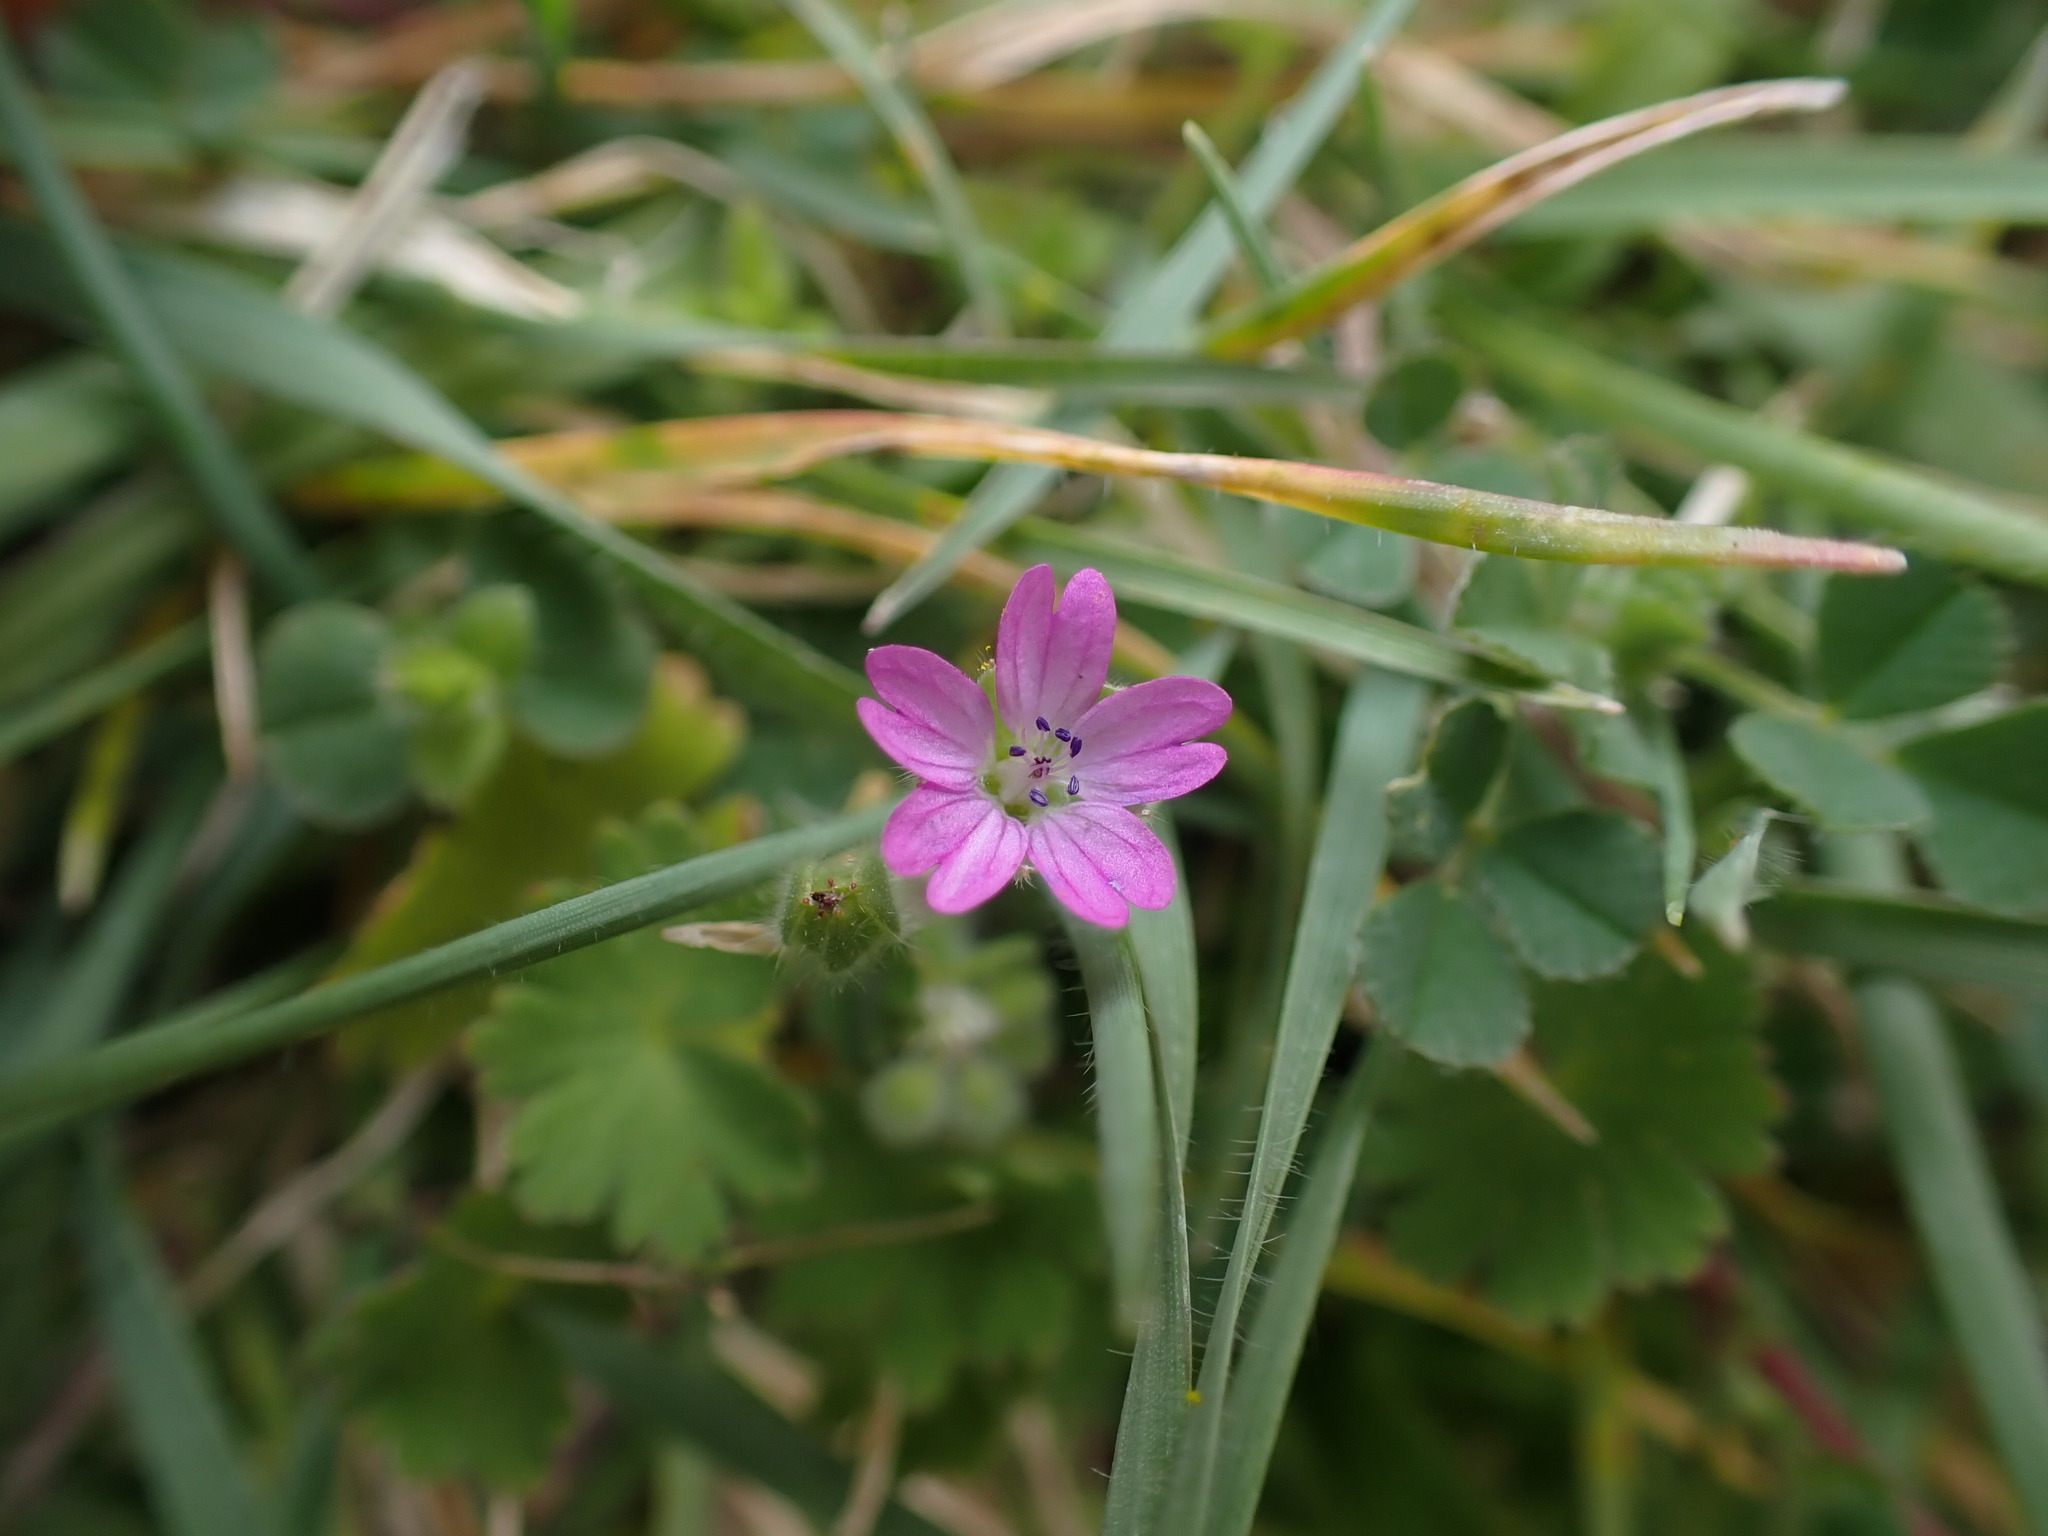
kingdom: Plantae
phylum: Tracheophyta
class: Magnoliopsida
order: Geraniales
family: Geraniaceae
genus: Geranium
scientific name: Geranium molle
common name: Dove's-foot crane's-bill
